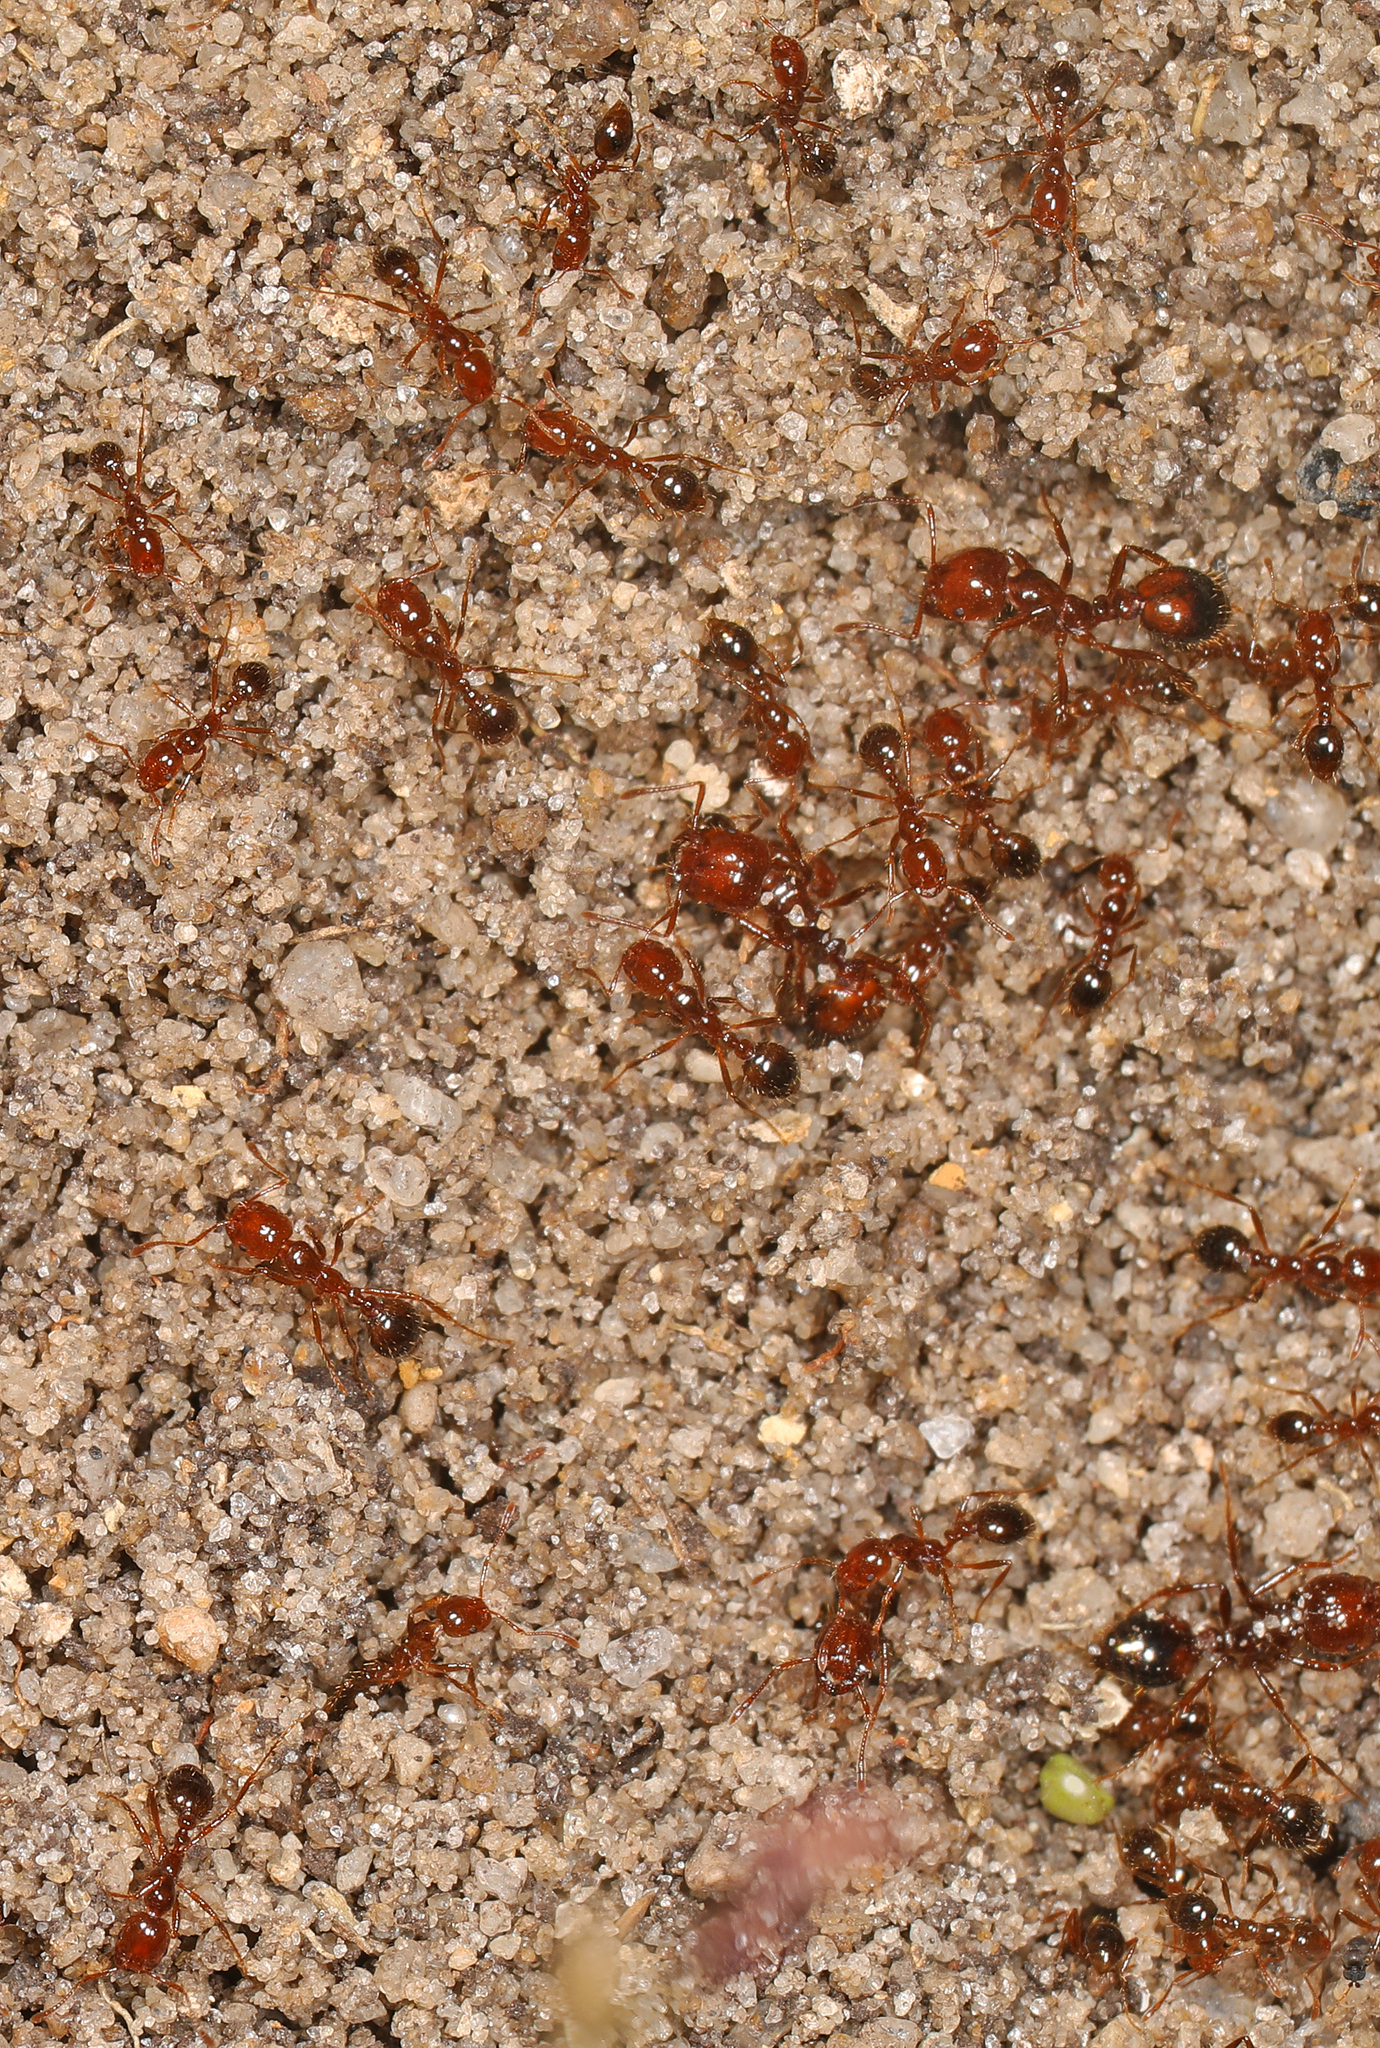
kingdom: Animalia
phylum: Arthropoda
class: Insecta
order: Hymenoptera
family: Formicidae
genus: Solenopsis
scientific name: Solenopsis invicta
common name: Red imported fire ant
